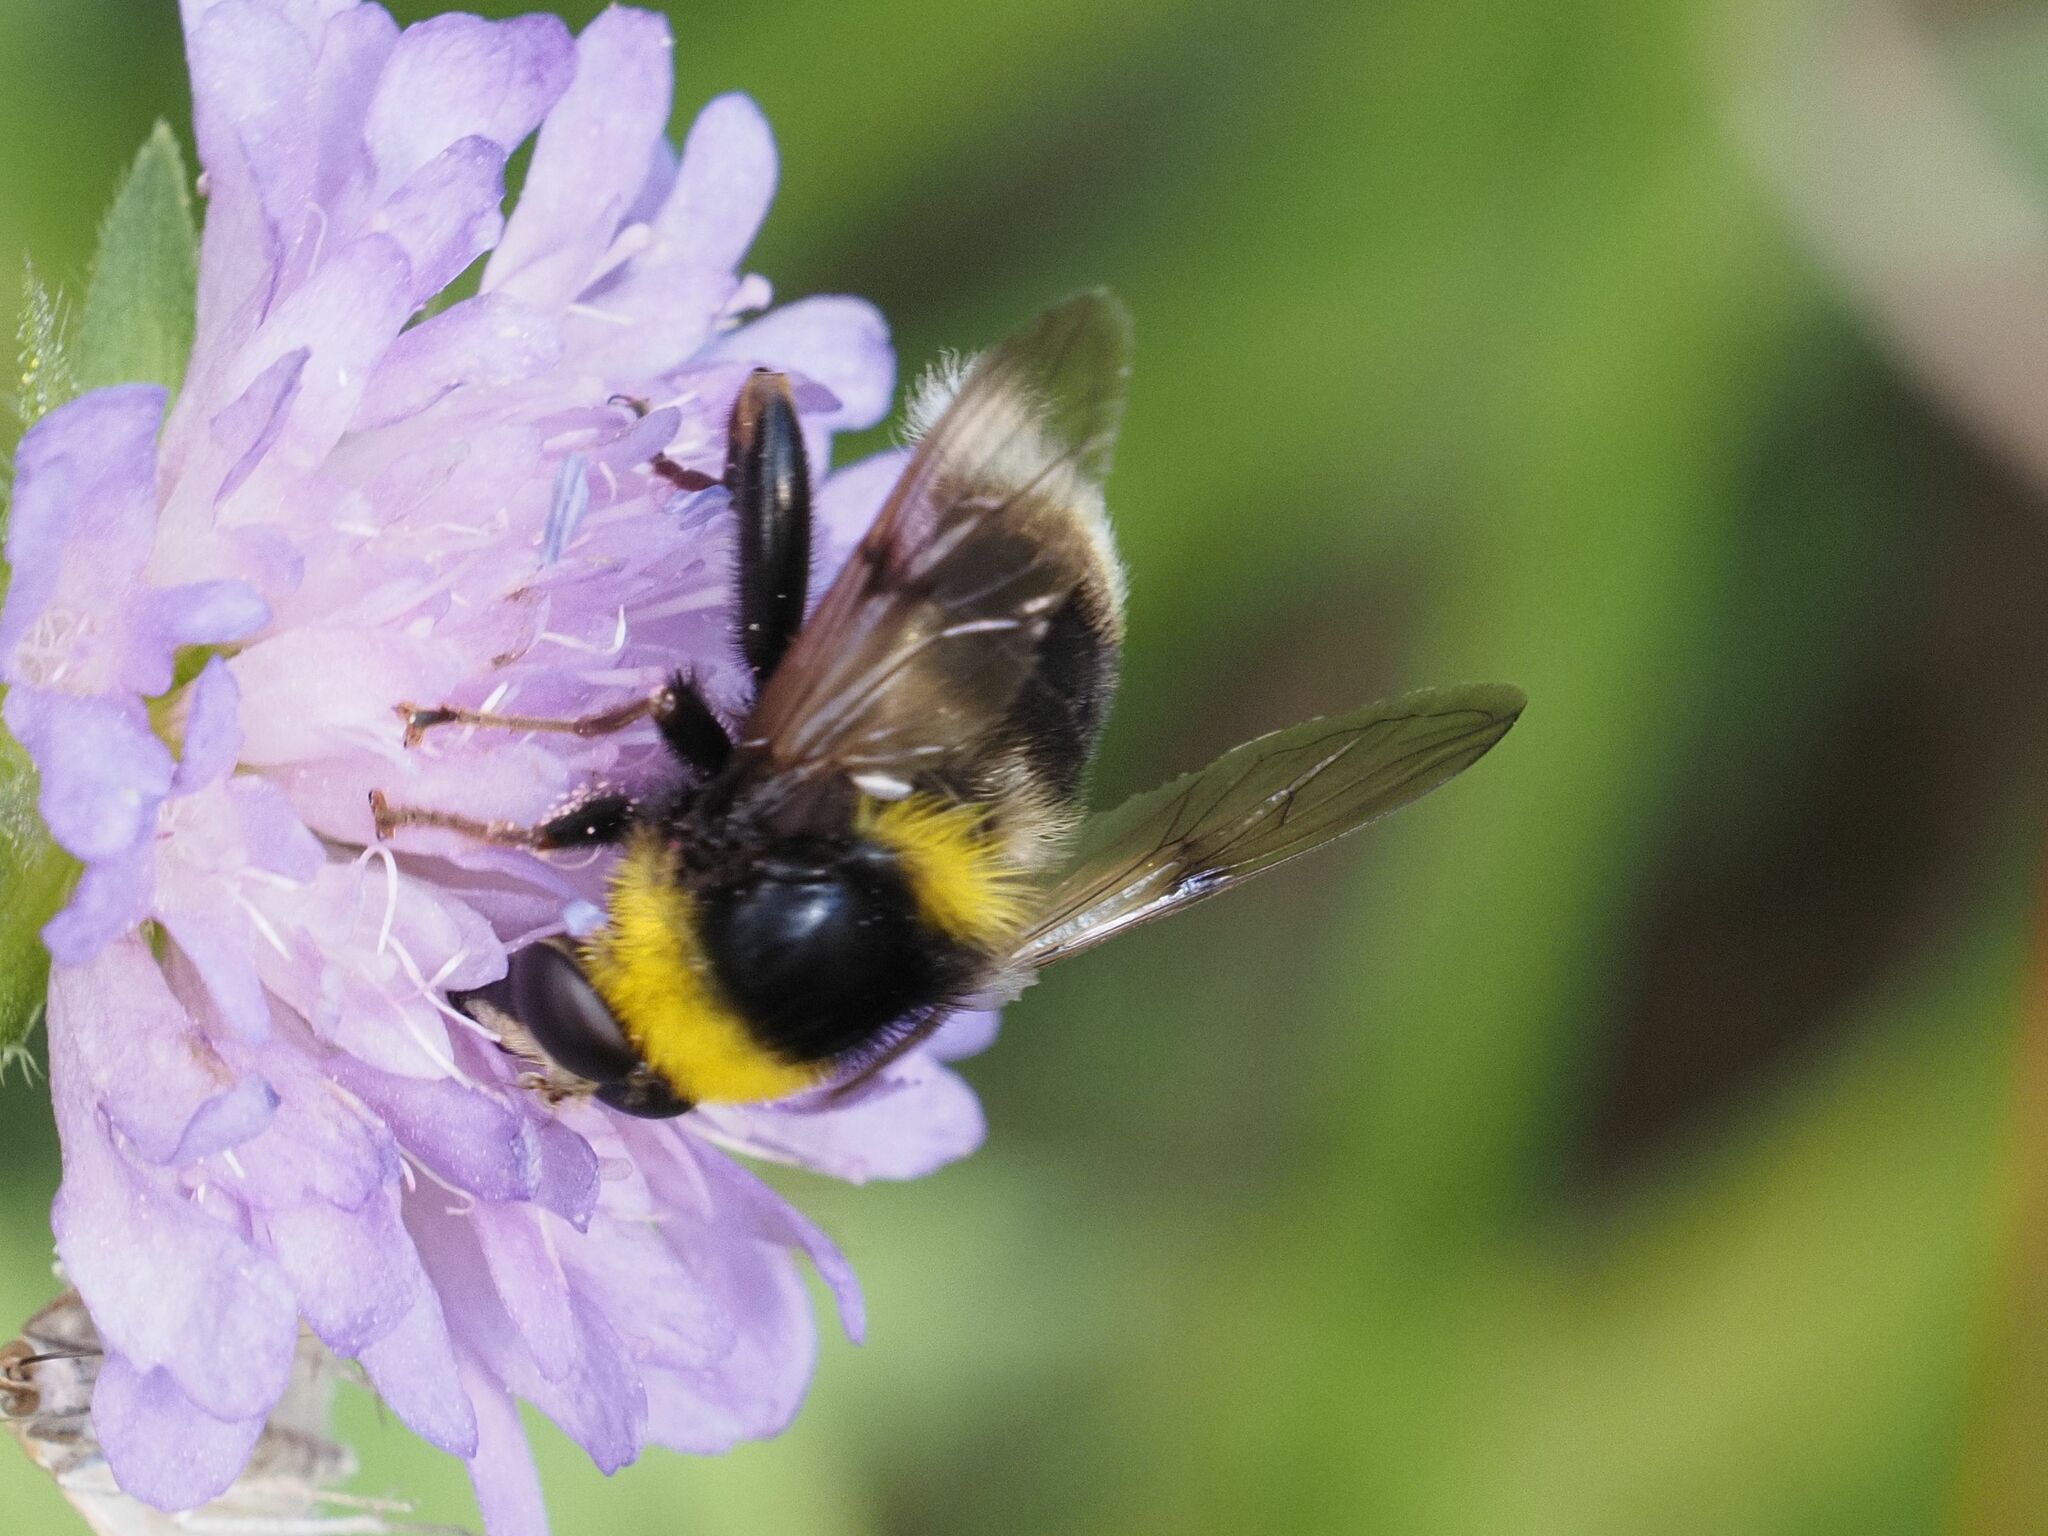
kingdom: Animalia
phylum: Arthropoda
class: Insecta
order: Diptera
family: Syrphidae
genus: Sericomyia
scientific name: Sericomyia bombiformis
